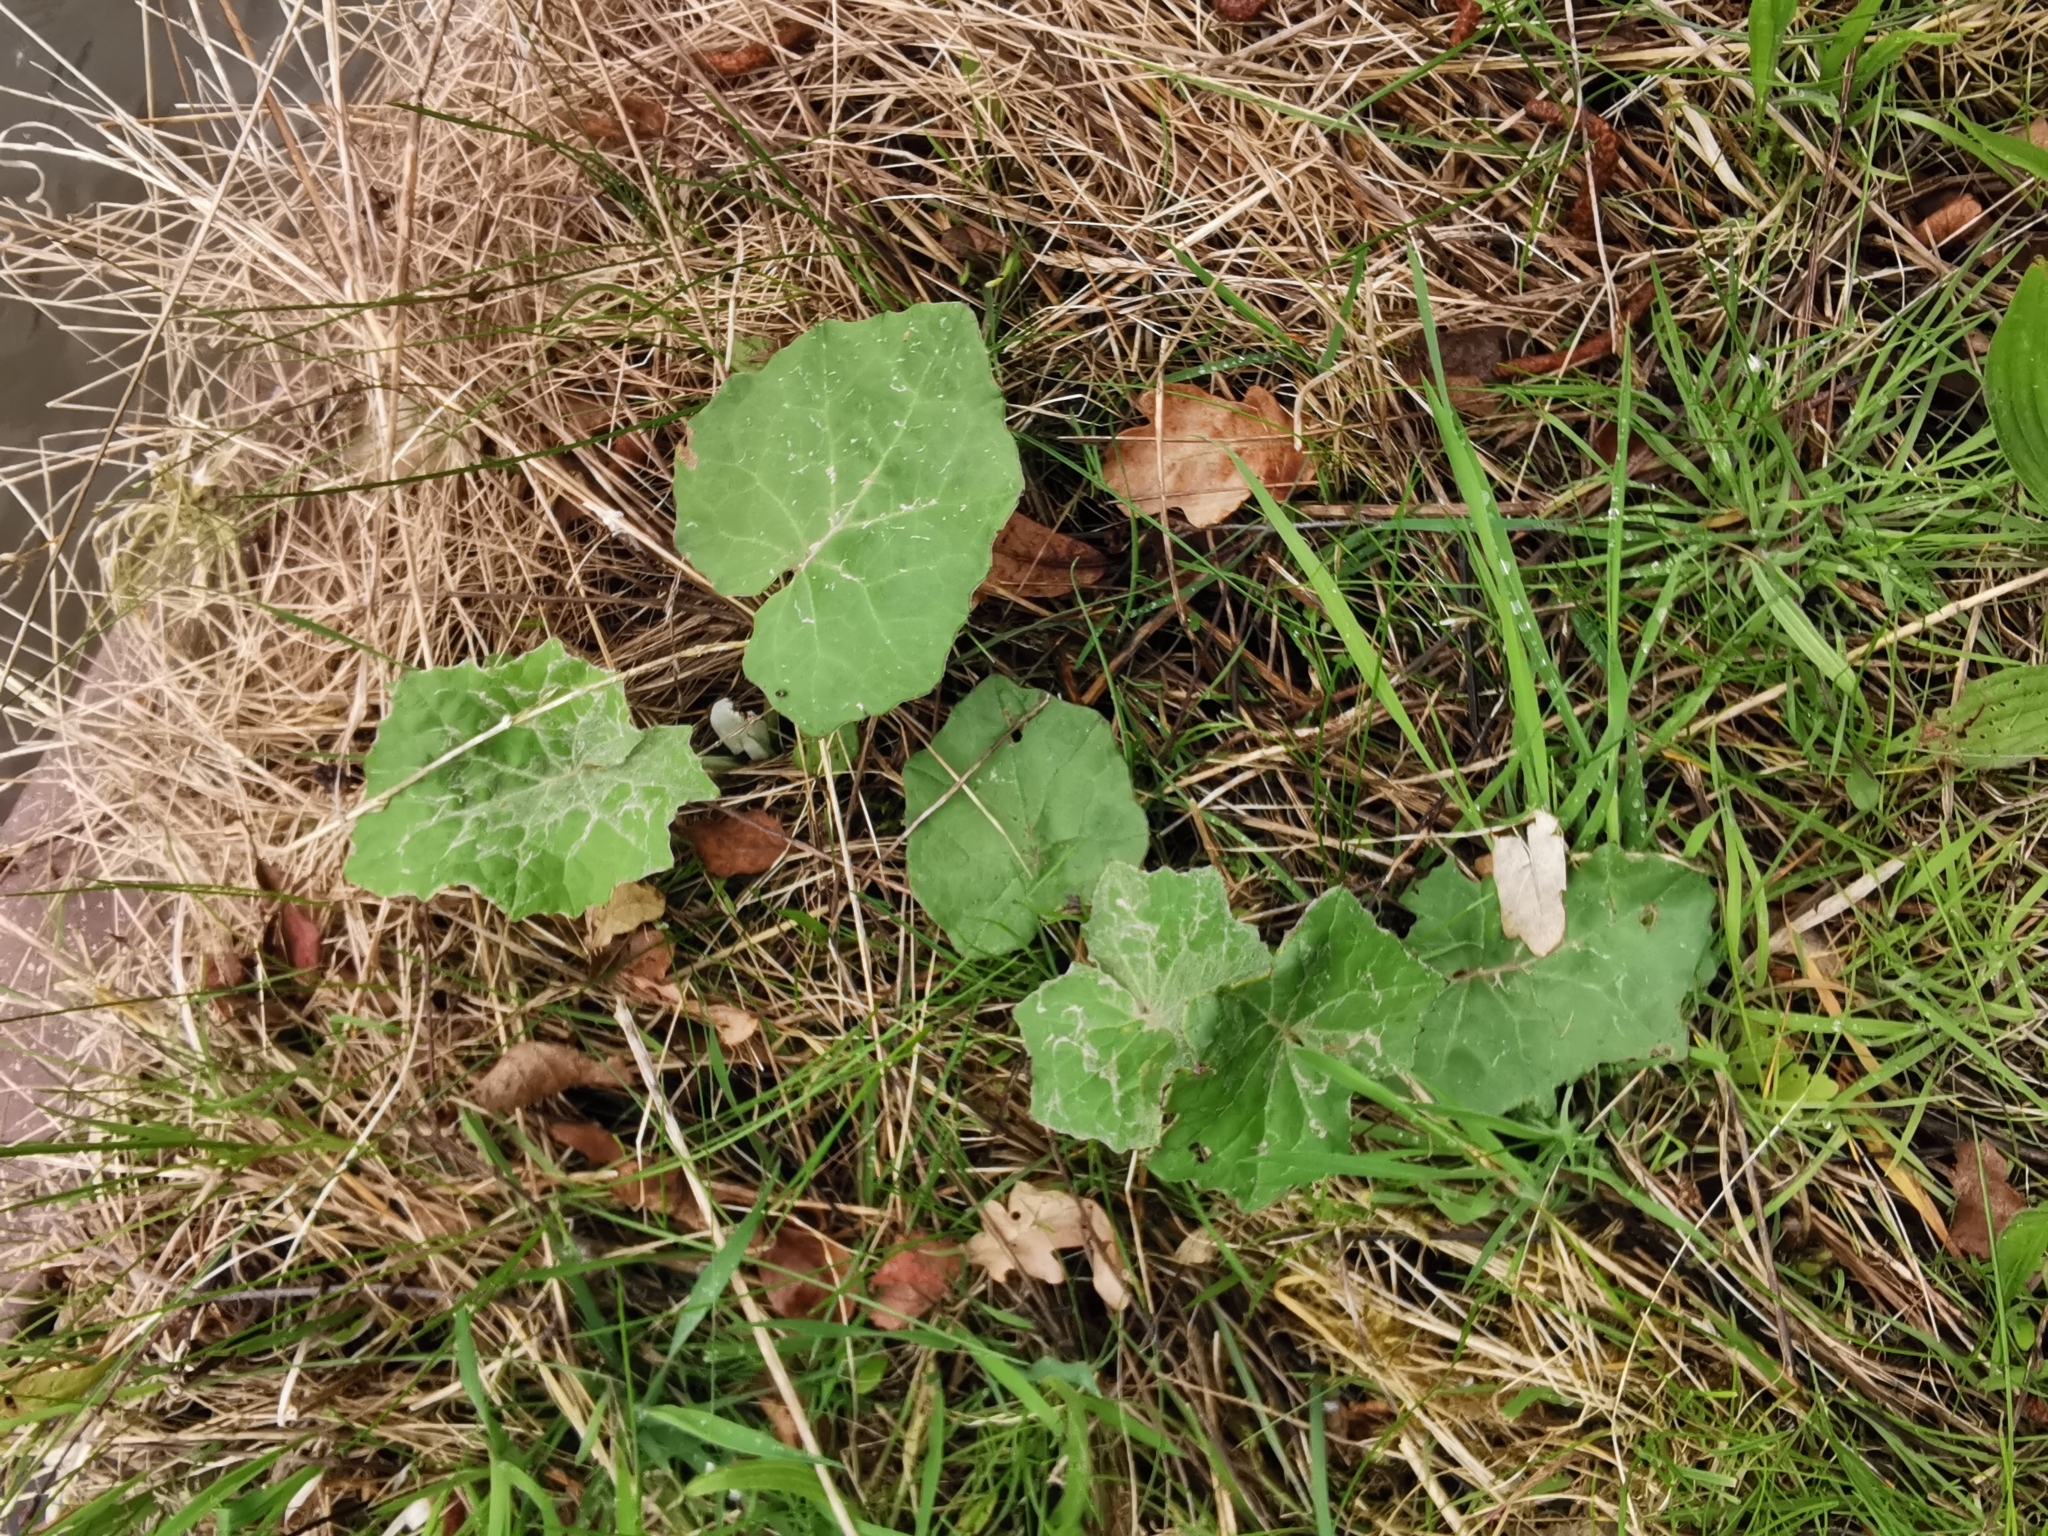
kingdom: Plantae
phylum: Tracheophyta
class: Magnoliopsida
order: Asterales
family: Asteraceae
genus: Tussilago
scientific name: Tussilago farfara
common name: Coltsfoot
